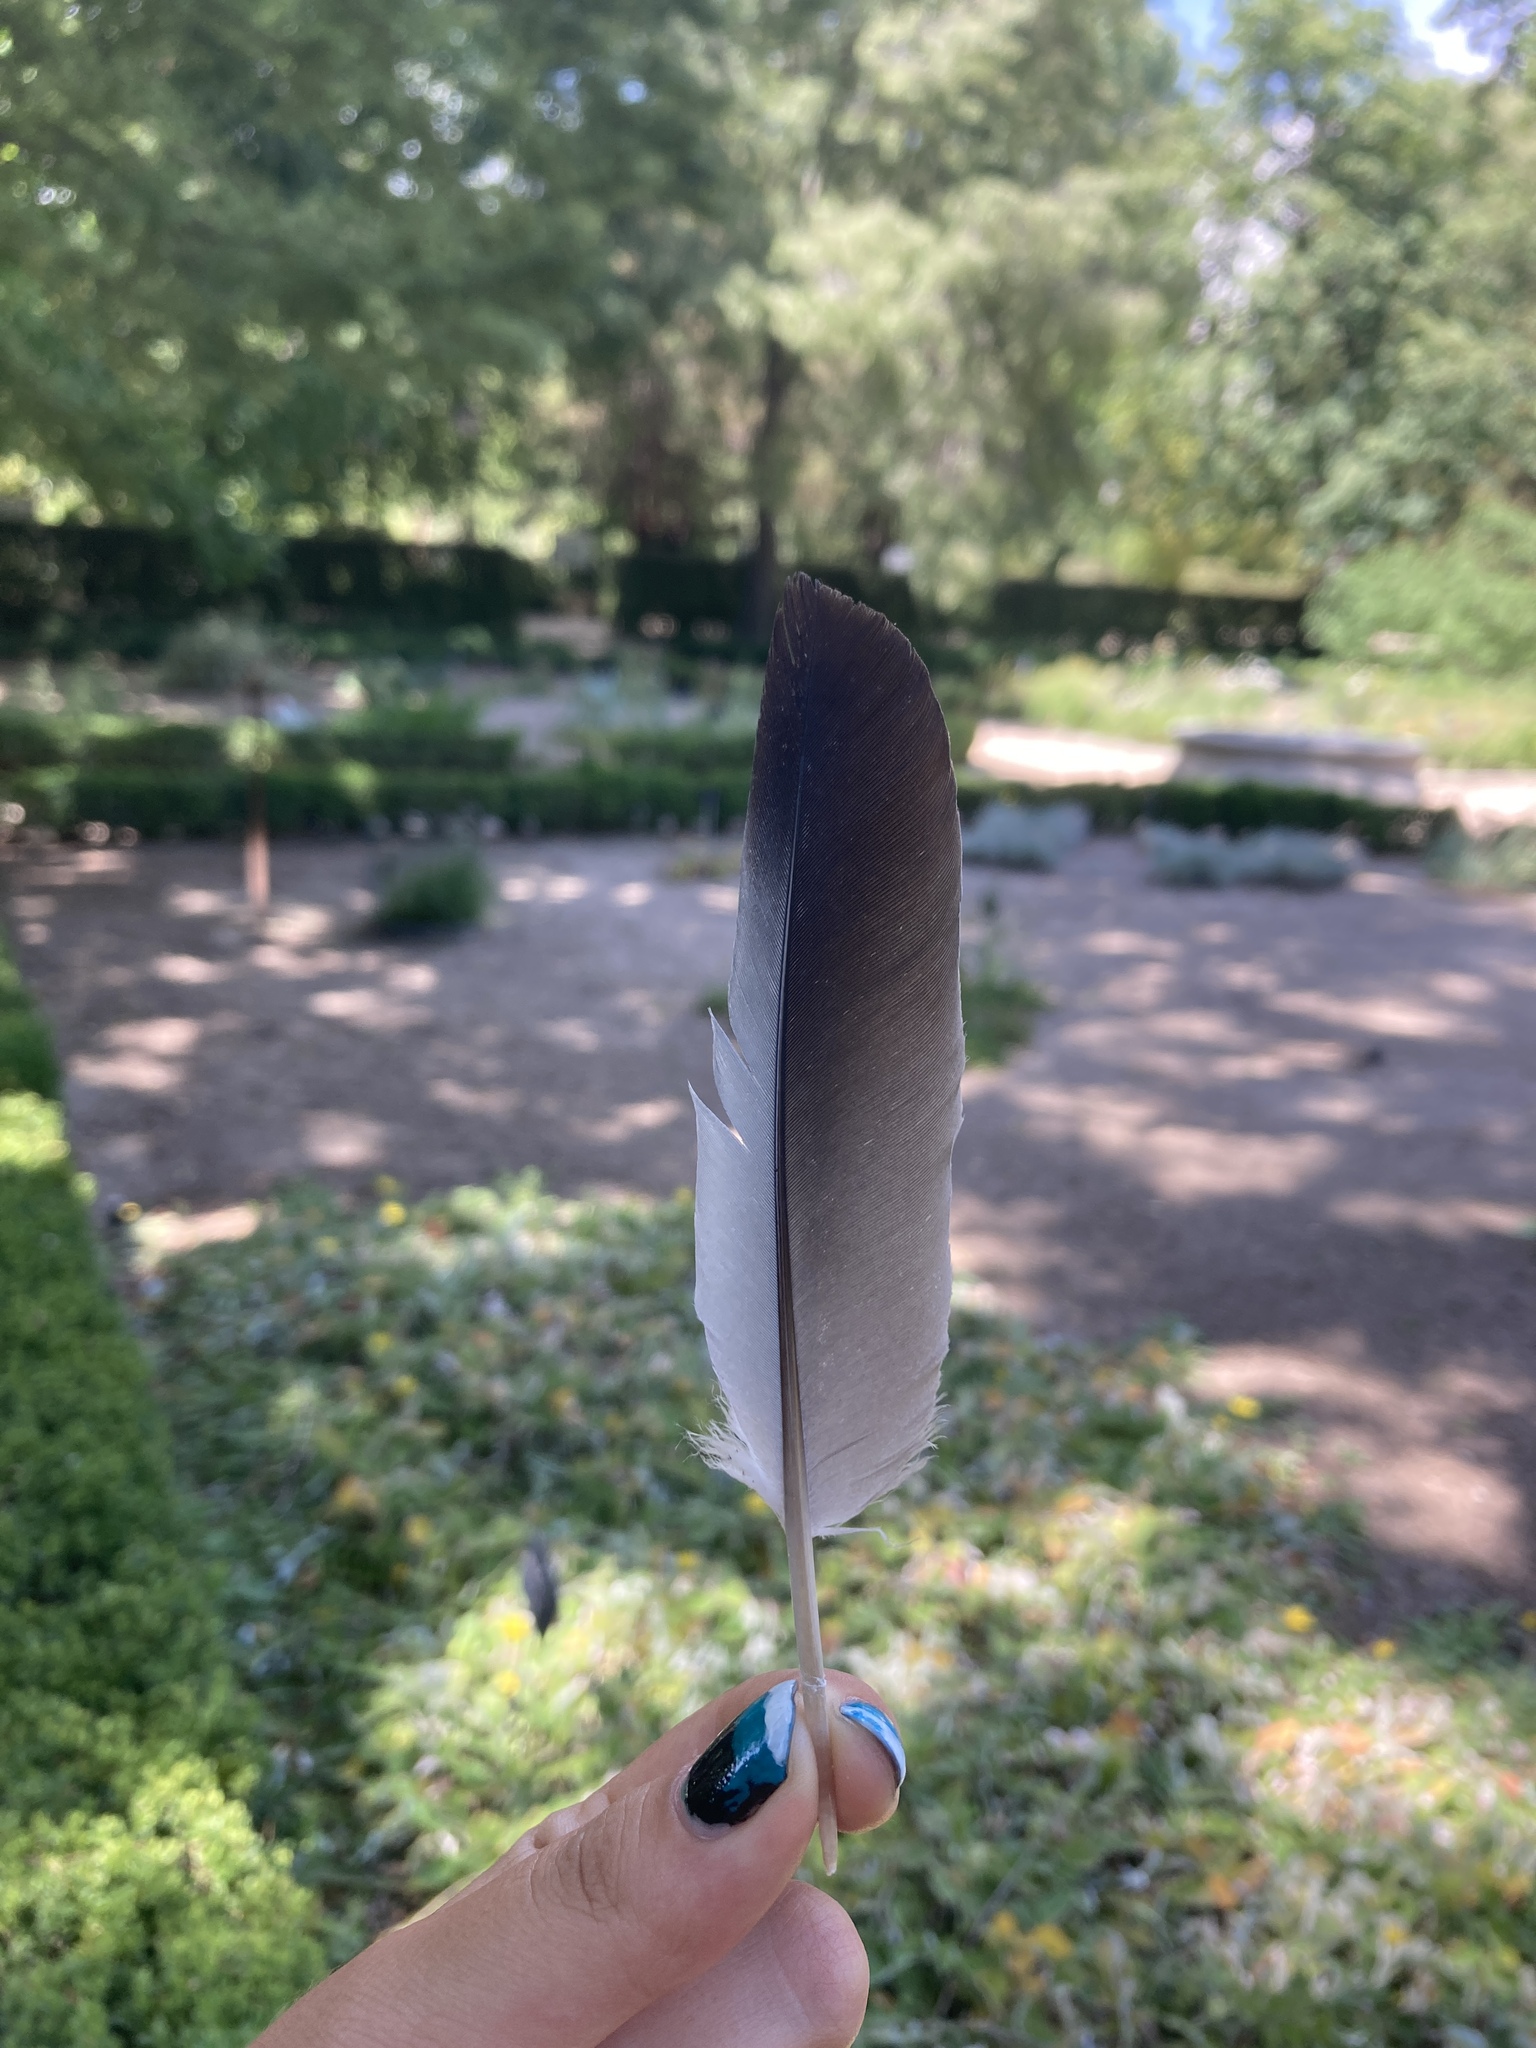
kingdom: Animalia
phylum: Chordata
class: Aves
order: Columbiformes
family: Columbidae
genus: Columba
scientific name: Columba oenas
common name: Stock dove
